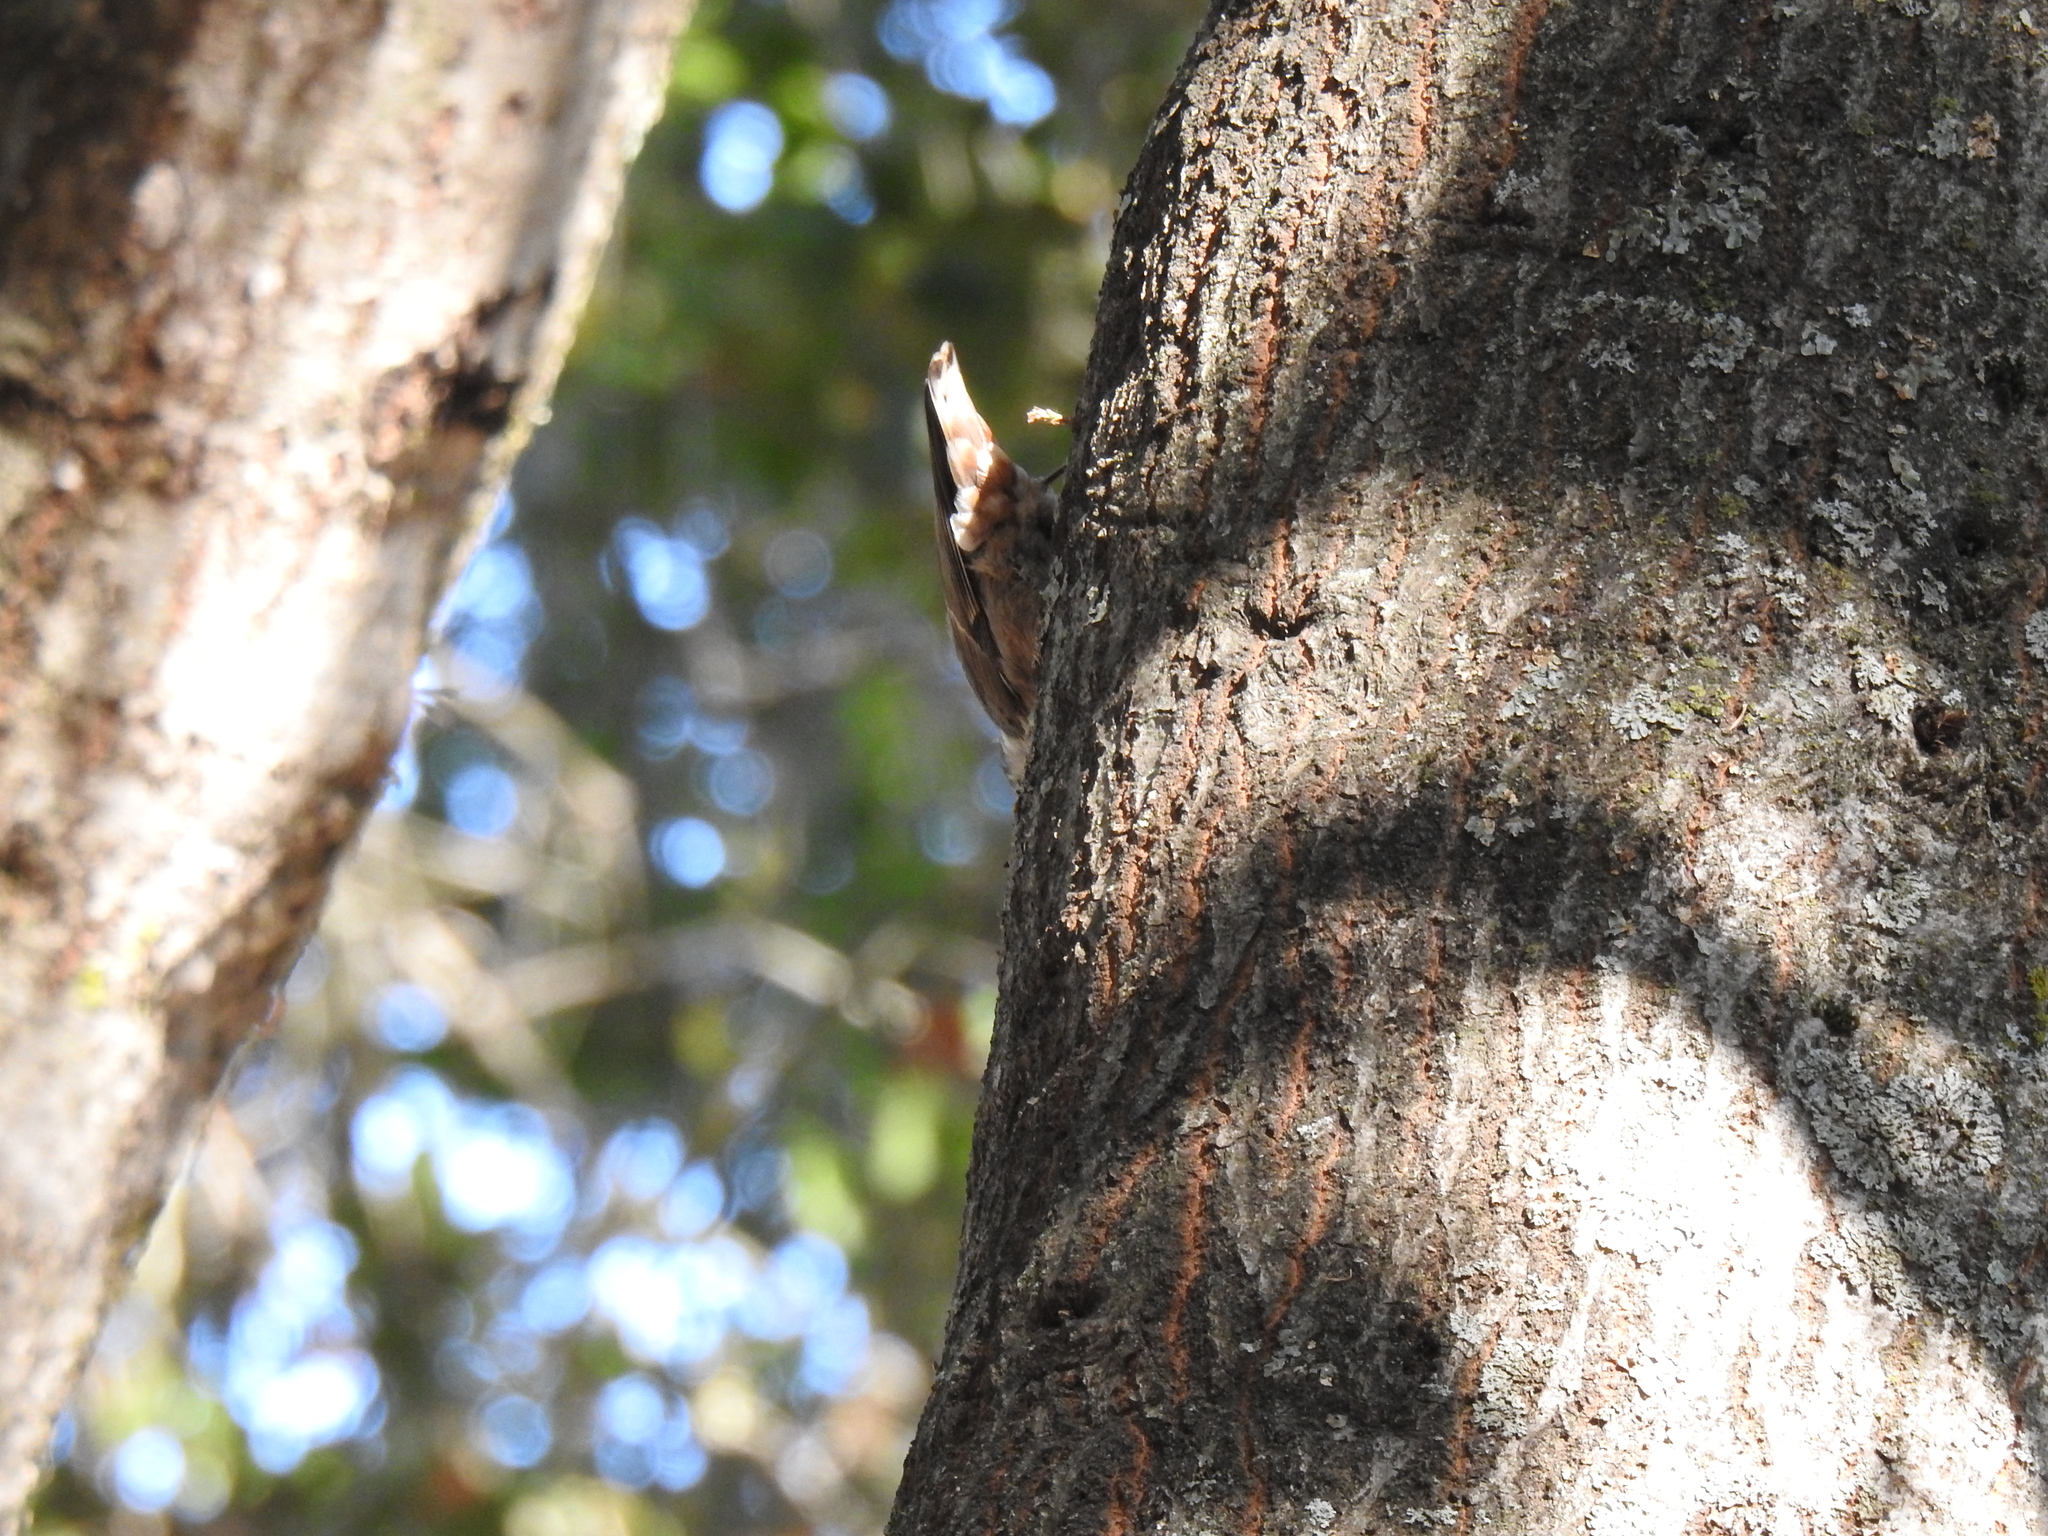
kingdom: Animalia
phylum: Chordata
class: Aves
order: Passeriformes
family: Sittidae
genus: Sitta
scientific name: Sitta carolinensis
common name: White-breasted nuthatch
